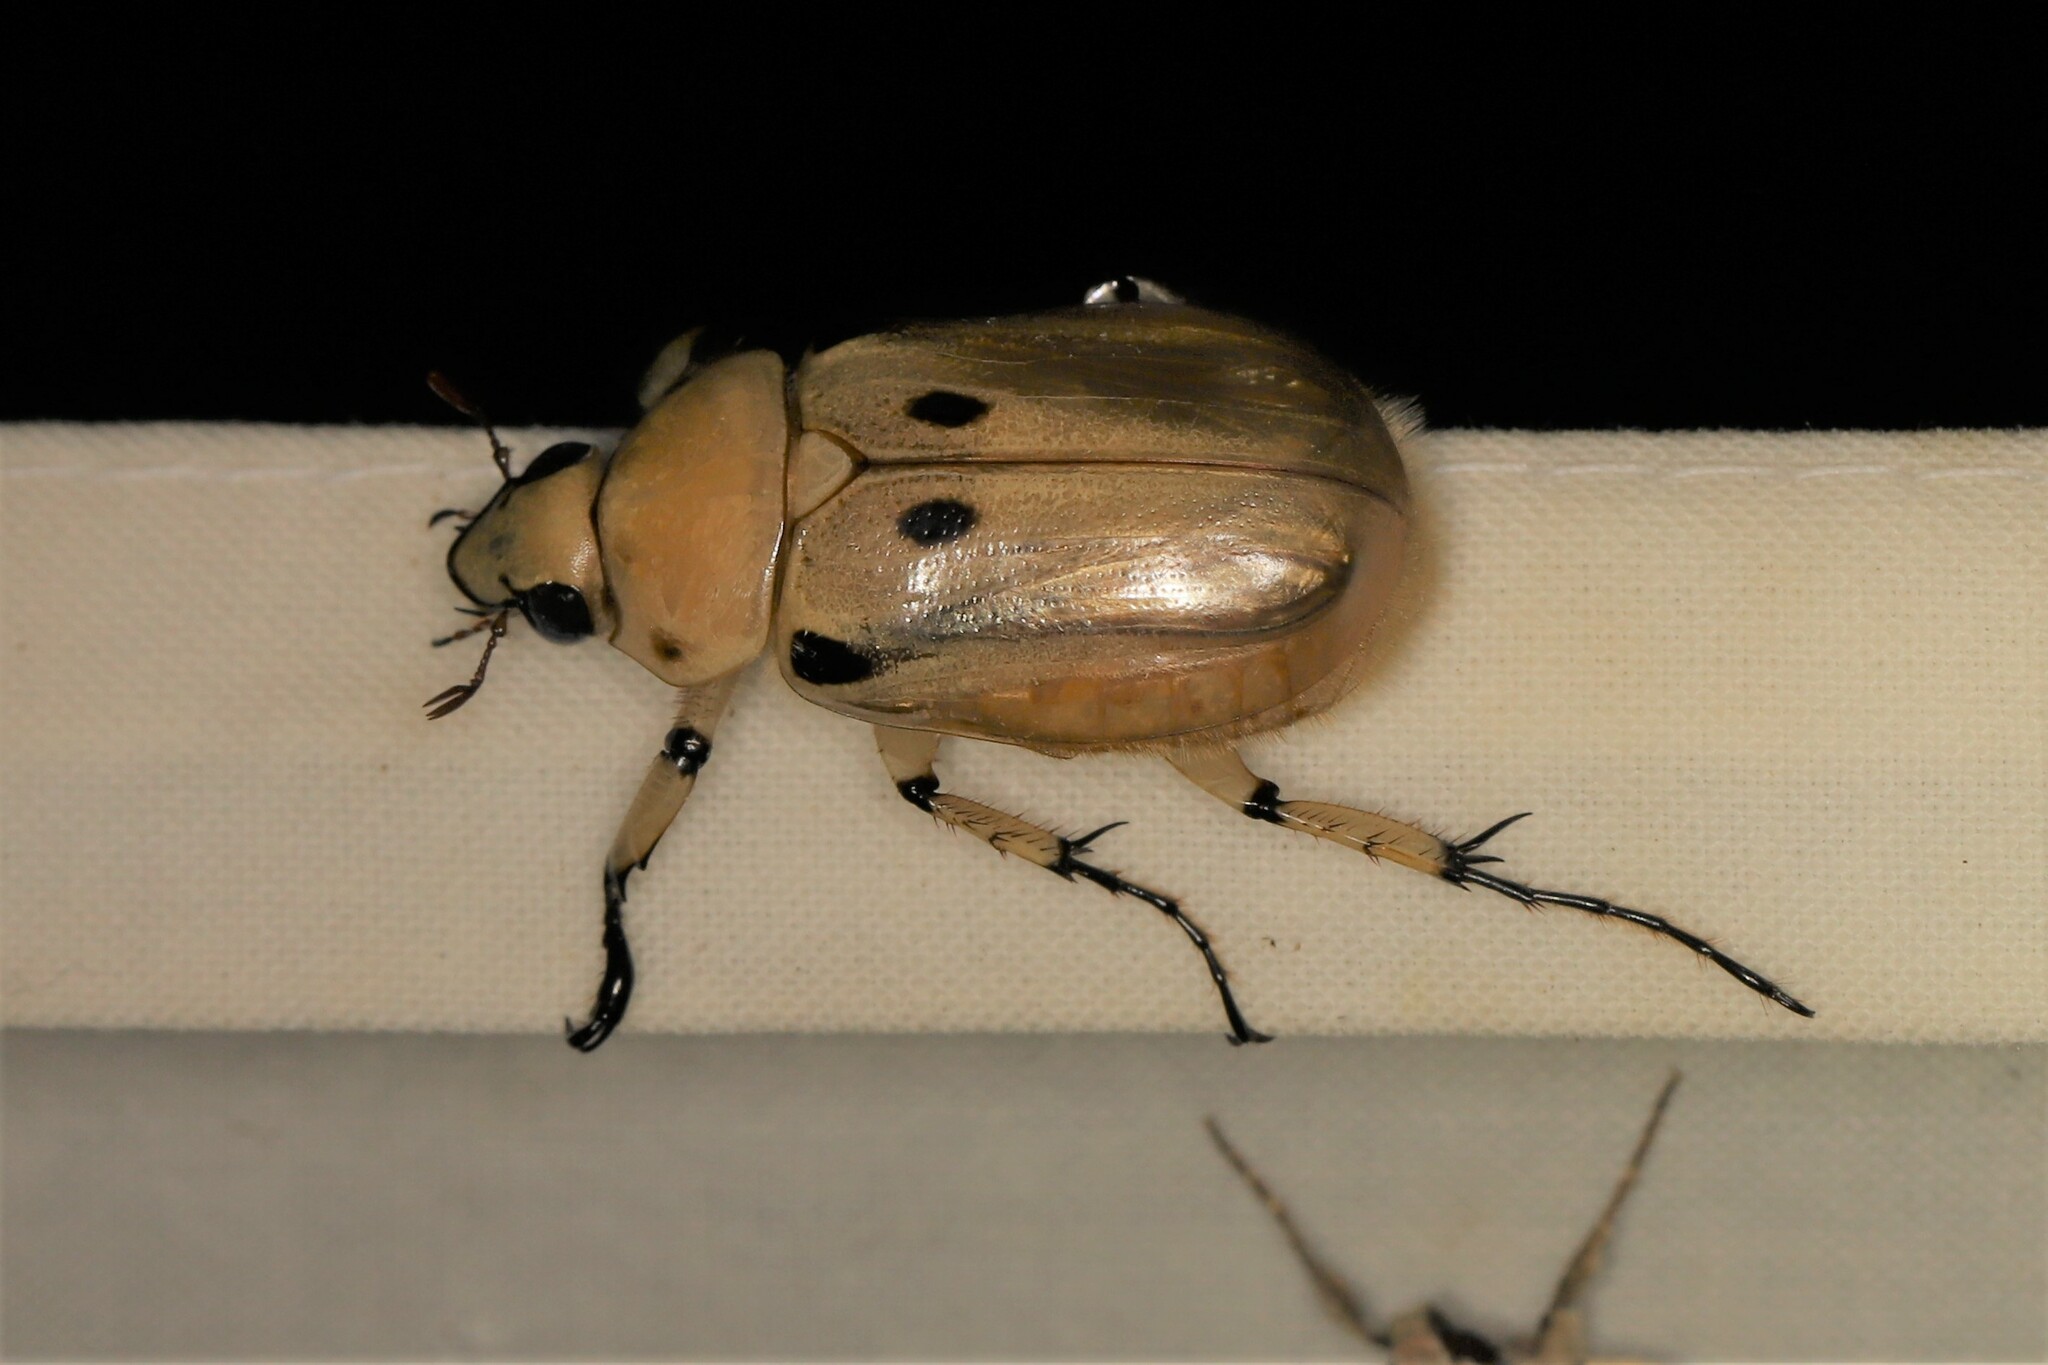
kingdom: Animalia
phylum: Arthropoda
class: Insecta
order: Coleoptera
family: Scarabaeidae
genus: Ancognatha
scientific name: Ancognatha vulgaris
